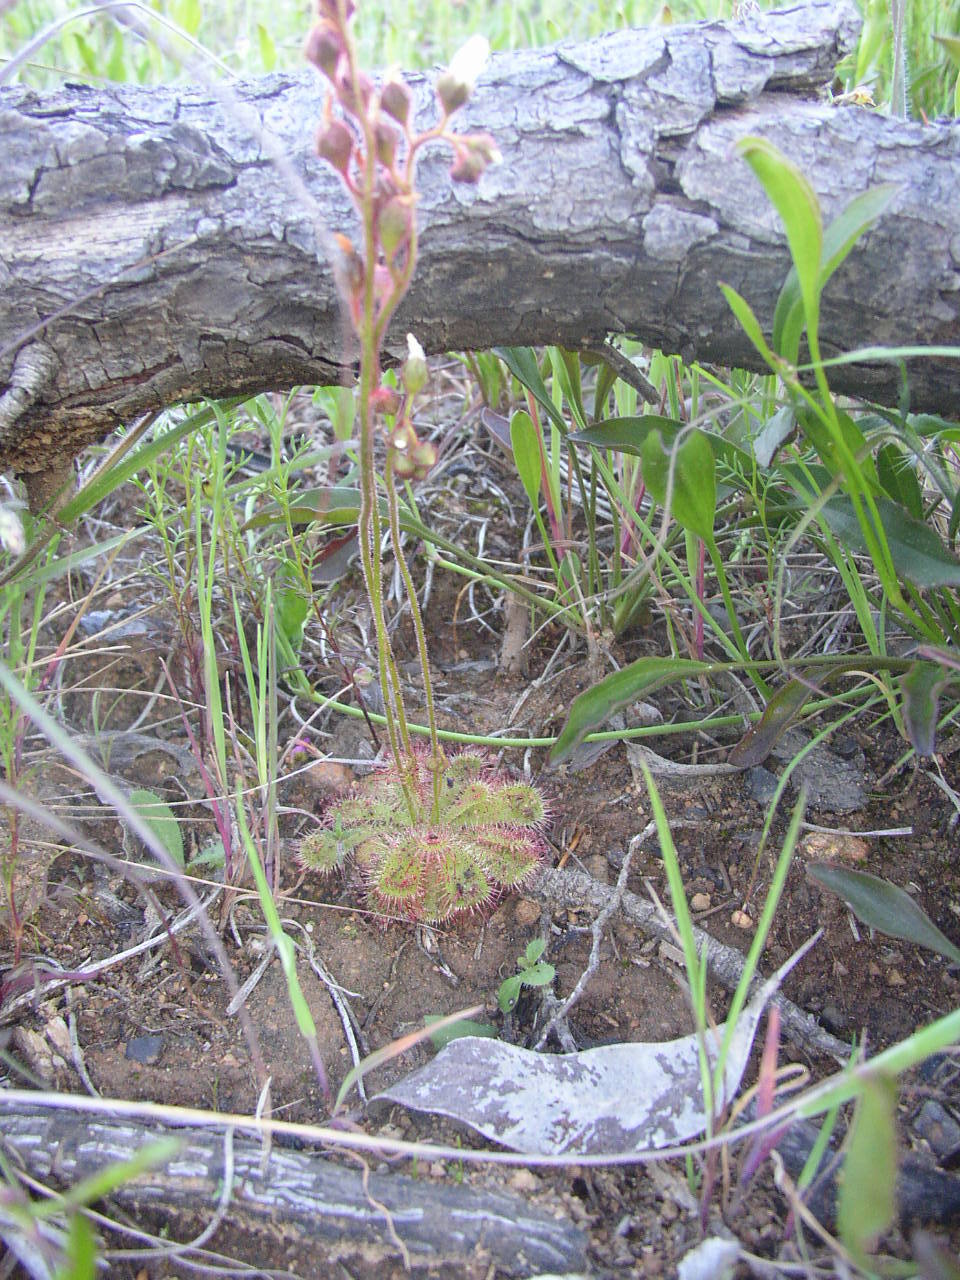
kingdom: Plantae
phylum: Tracheophyta
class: Magnoliopsida
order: Caryophyllales
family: Droseraceae
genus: Drosera
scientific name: Drosera trinervia
